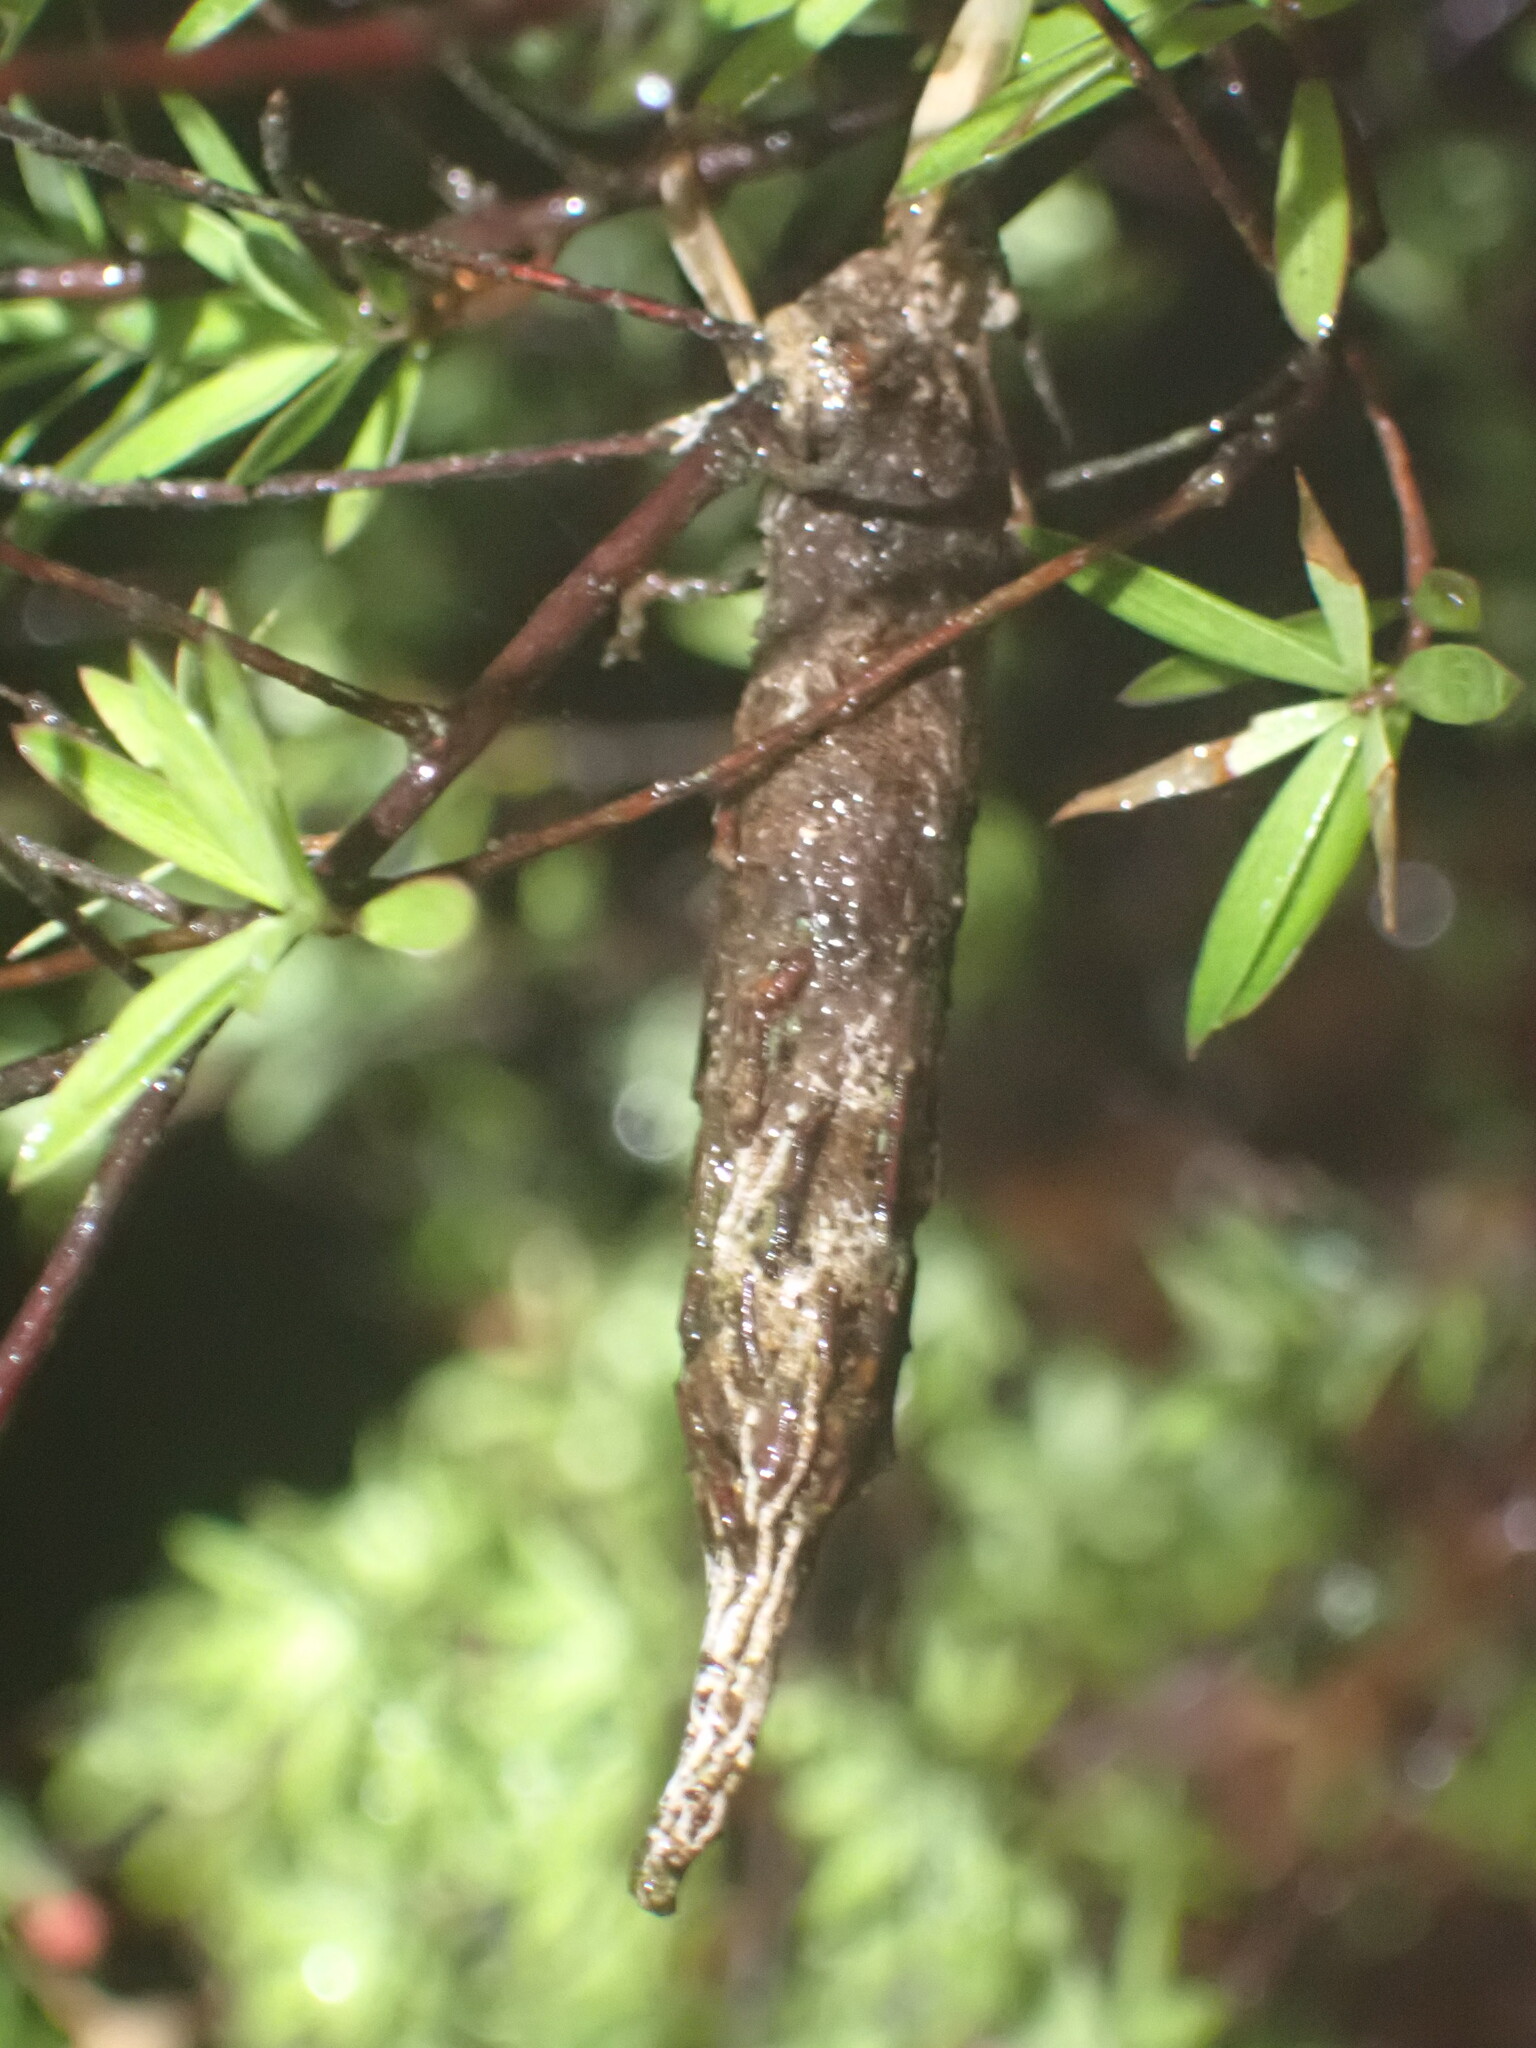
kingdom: Animalia
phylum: Arthropoda
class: Insecta
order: Lepidoptera
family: Psychidae
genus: Liothula
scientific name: Liothula omnivora
